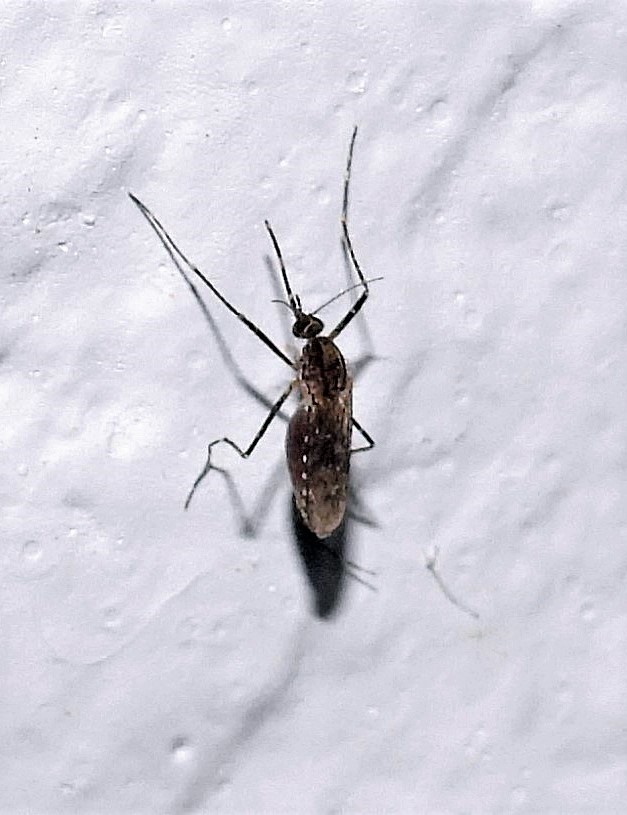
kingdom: Animalia
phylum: Arthropoda
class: Insecta
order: Diptera
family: Culicidae
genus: Coquillettidia
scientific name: Coquillettidia shannoni
